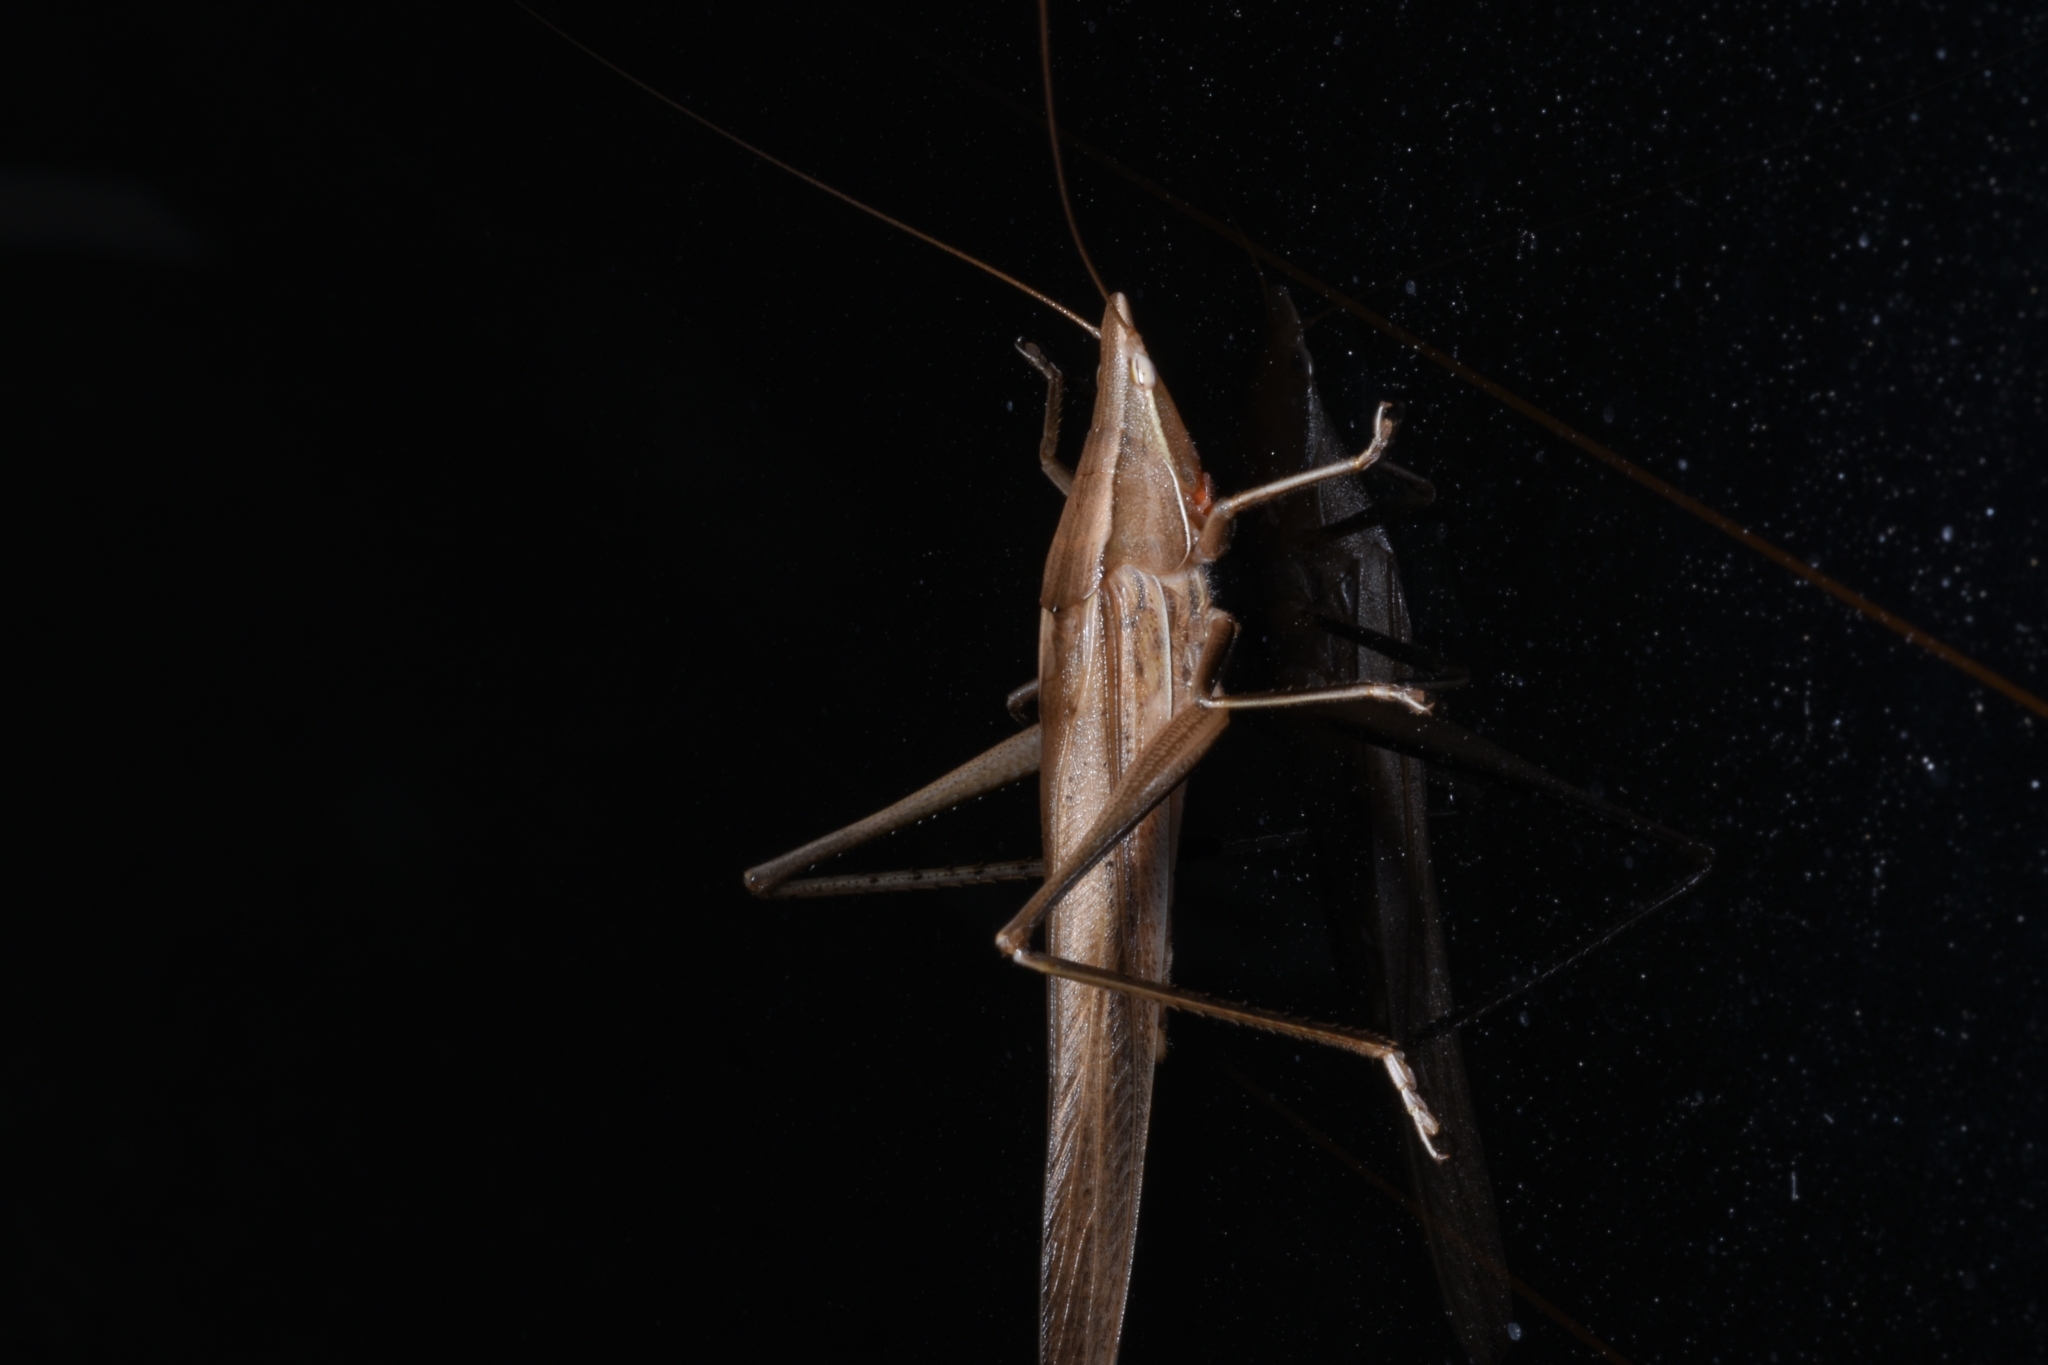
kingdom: Animalia
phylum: Arthropoda
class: Insecta
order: Orthoptera
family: Tettigoniidae
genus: Euconocephalus
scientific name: Euconocephalus varius
